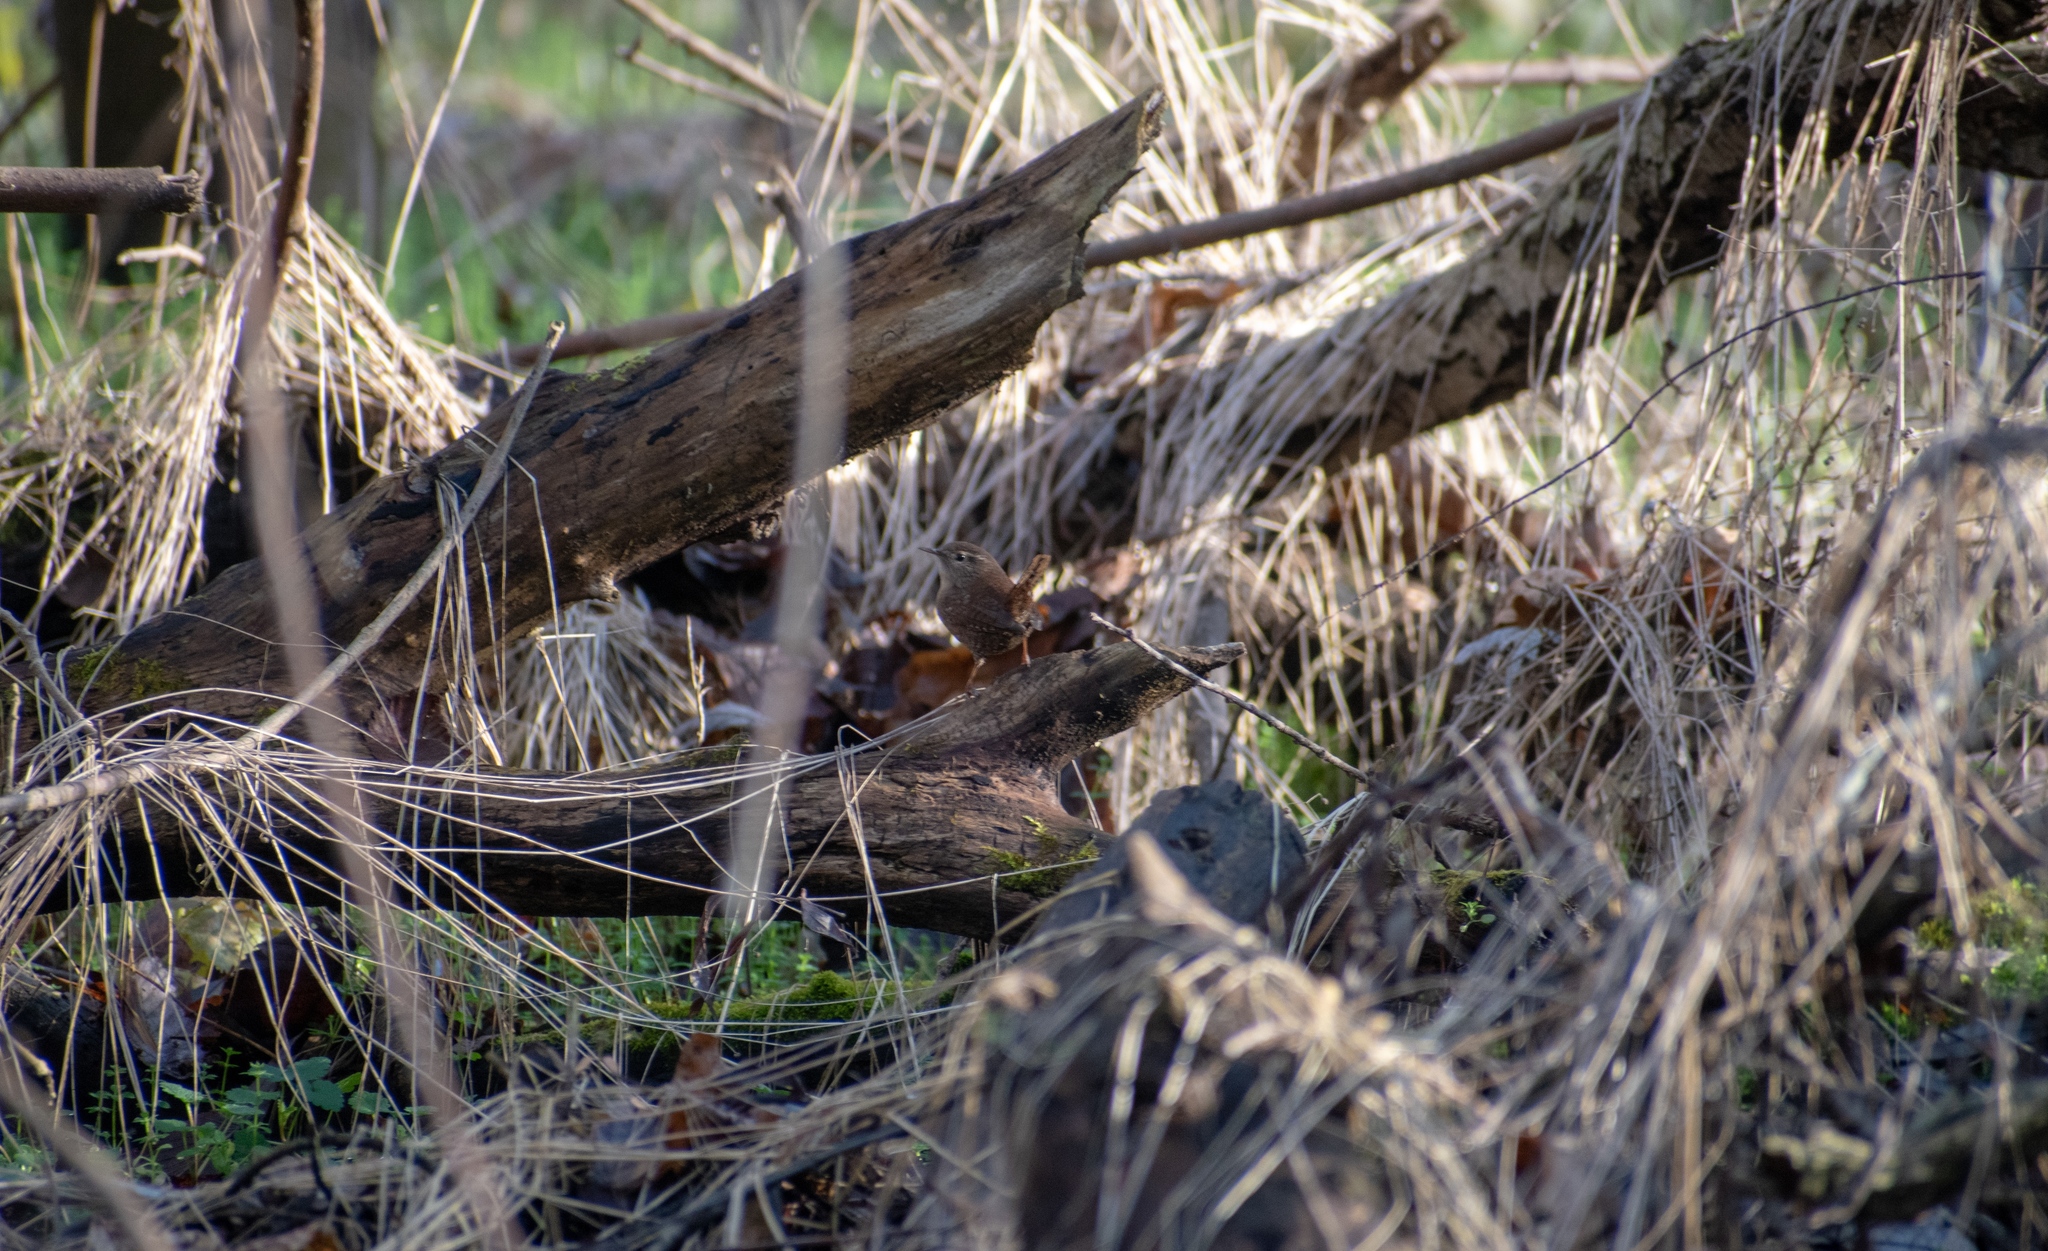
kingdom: Animalia
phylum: Chordata
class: Aves
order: Passeriformes
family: Troglodytidae
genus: Troglodytes
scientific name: Troglodytes troglodytes
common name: Eurasian wren
